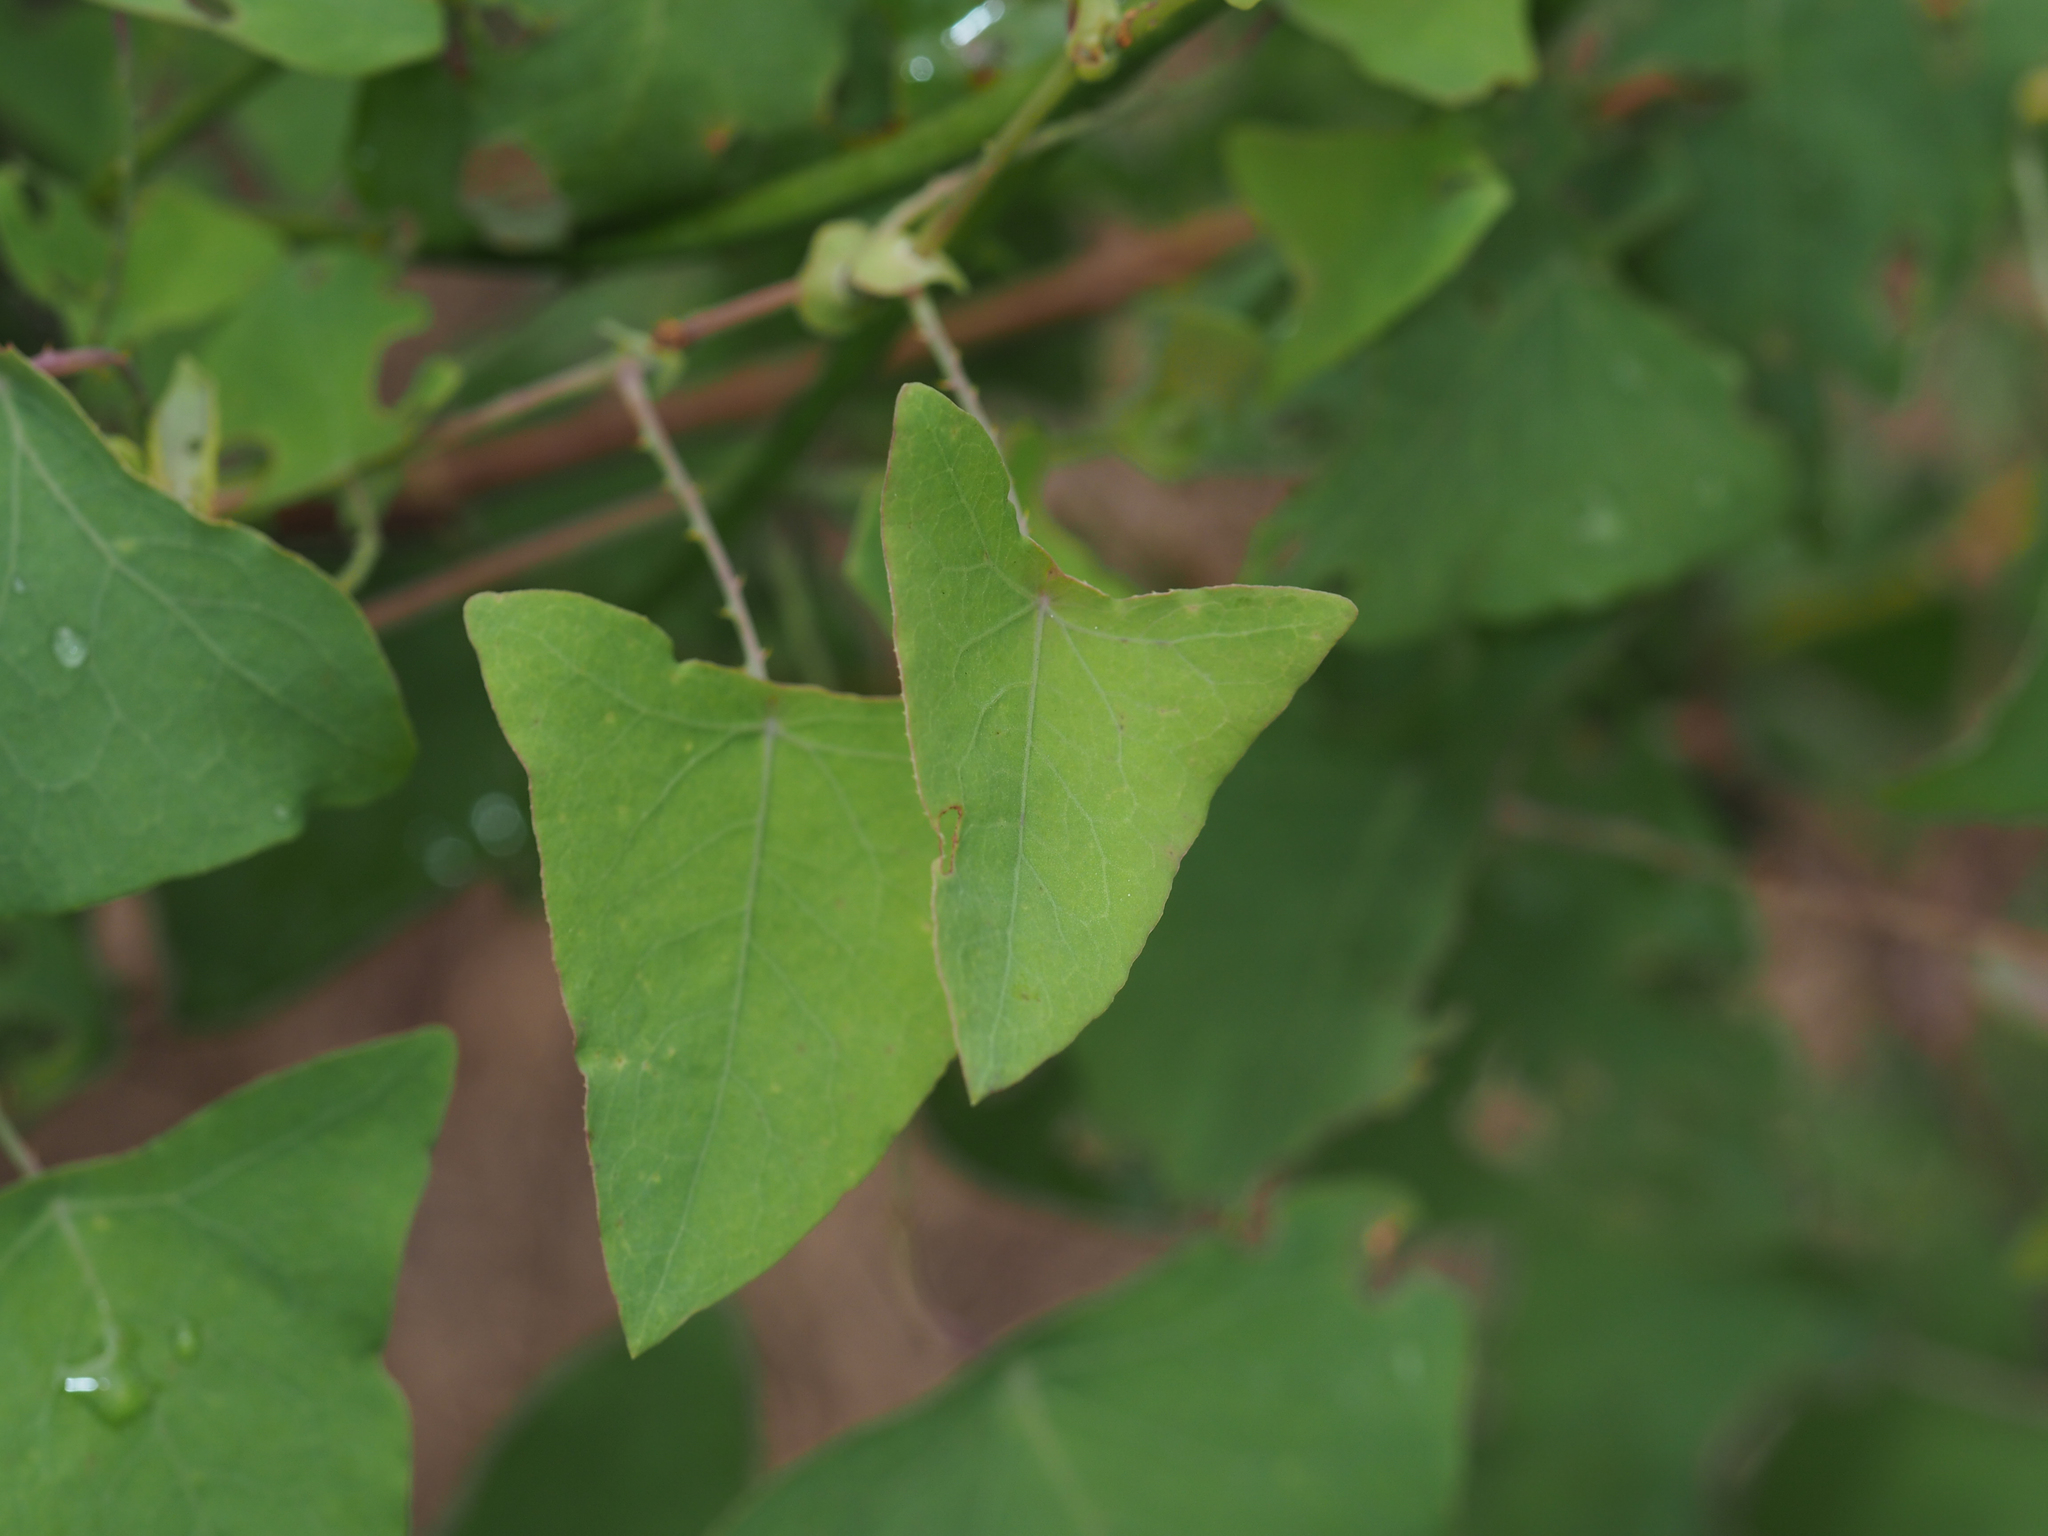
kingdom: Plantae
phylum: Tracheophyta
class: Magnoliopsida
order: Caryophyllales
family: Polygonaceae
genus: Persicaria
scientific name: Persicaria perfoliata
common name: Asiatic tearthumb
